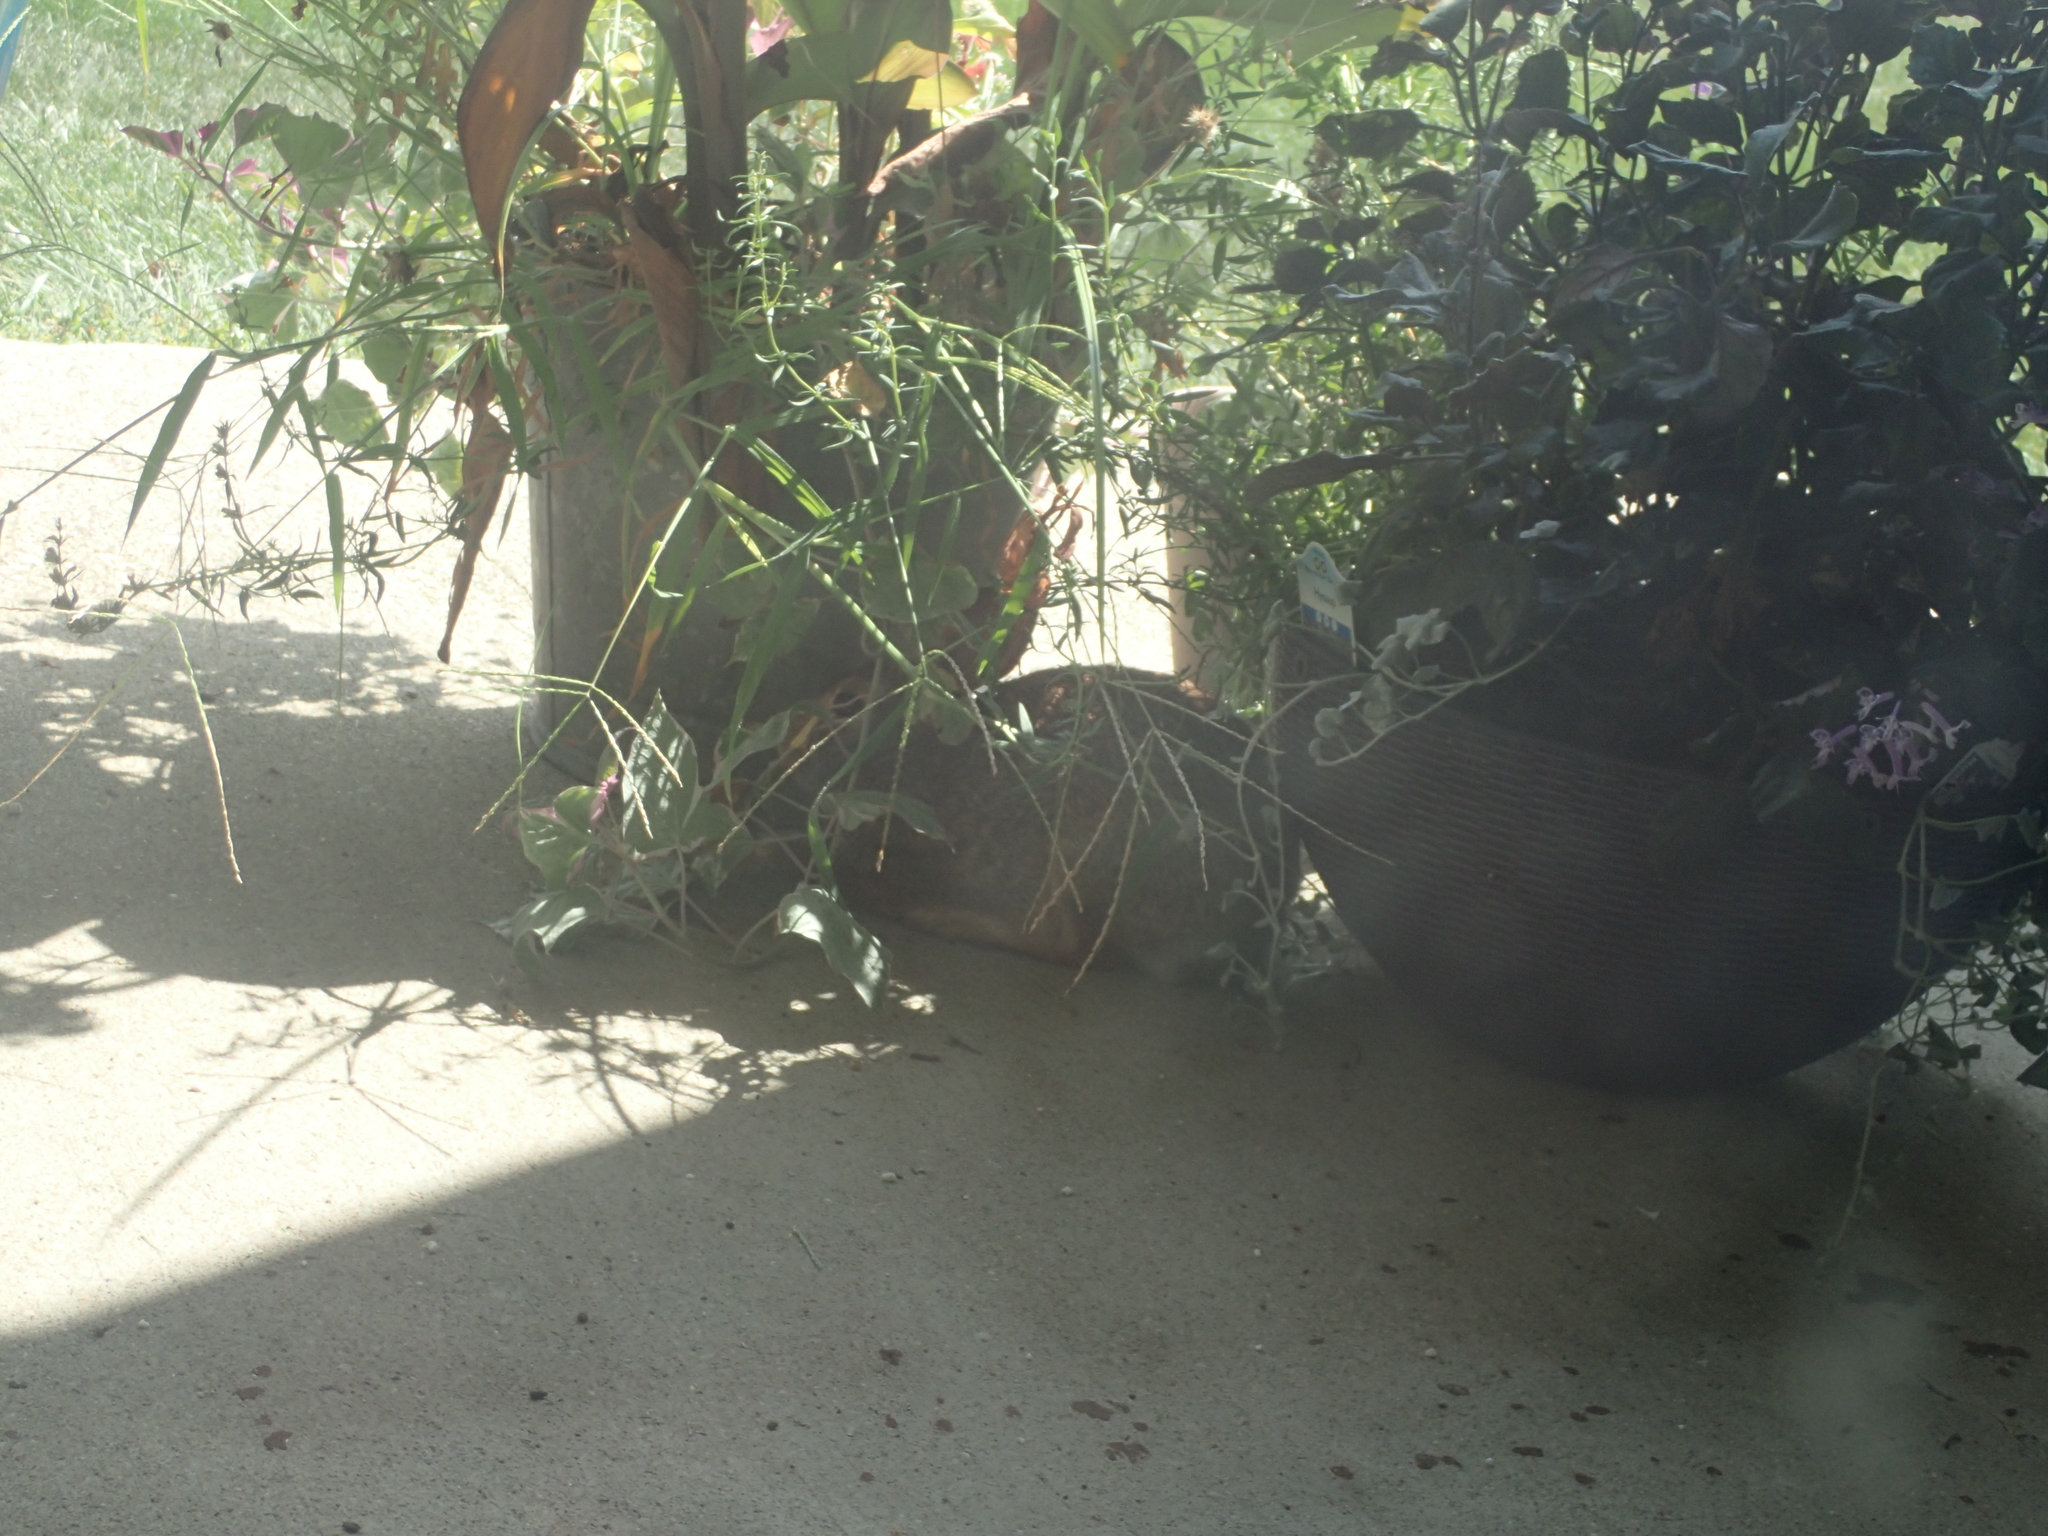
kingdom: Animalia
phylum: Chordata
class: Mammalia
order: Lagomorpha
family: Leporidae
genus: Sylvilagus
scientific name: Sylvilagus floridanus
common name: Eastern cottontail
